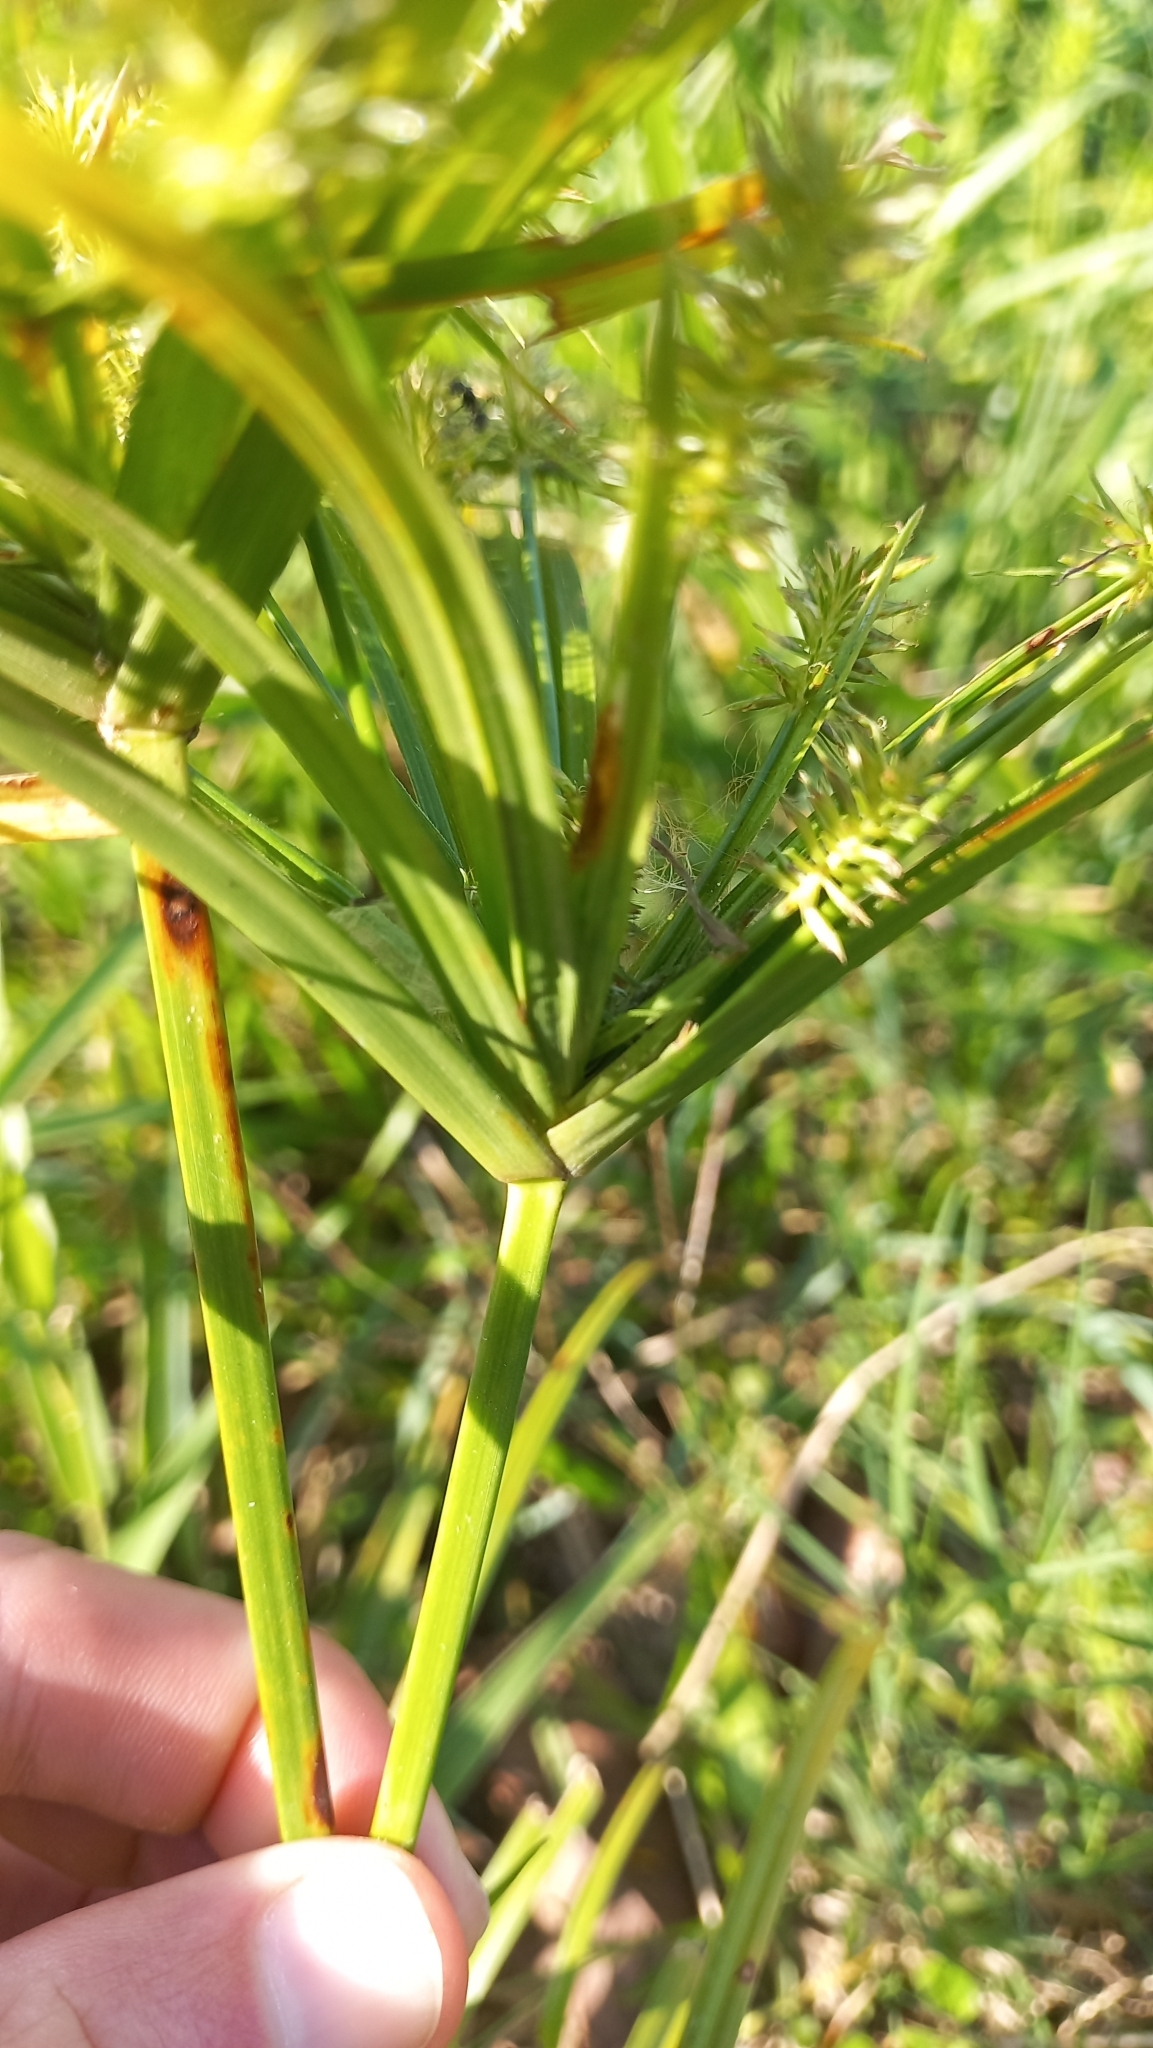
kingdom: Plantae
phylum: Tracheophyta
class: Liliopsida
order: Poales
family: Cyperaceae
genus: Cyperus
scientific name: Cyperus meyenianus
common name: Meyen's flatsedge
